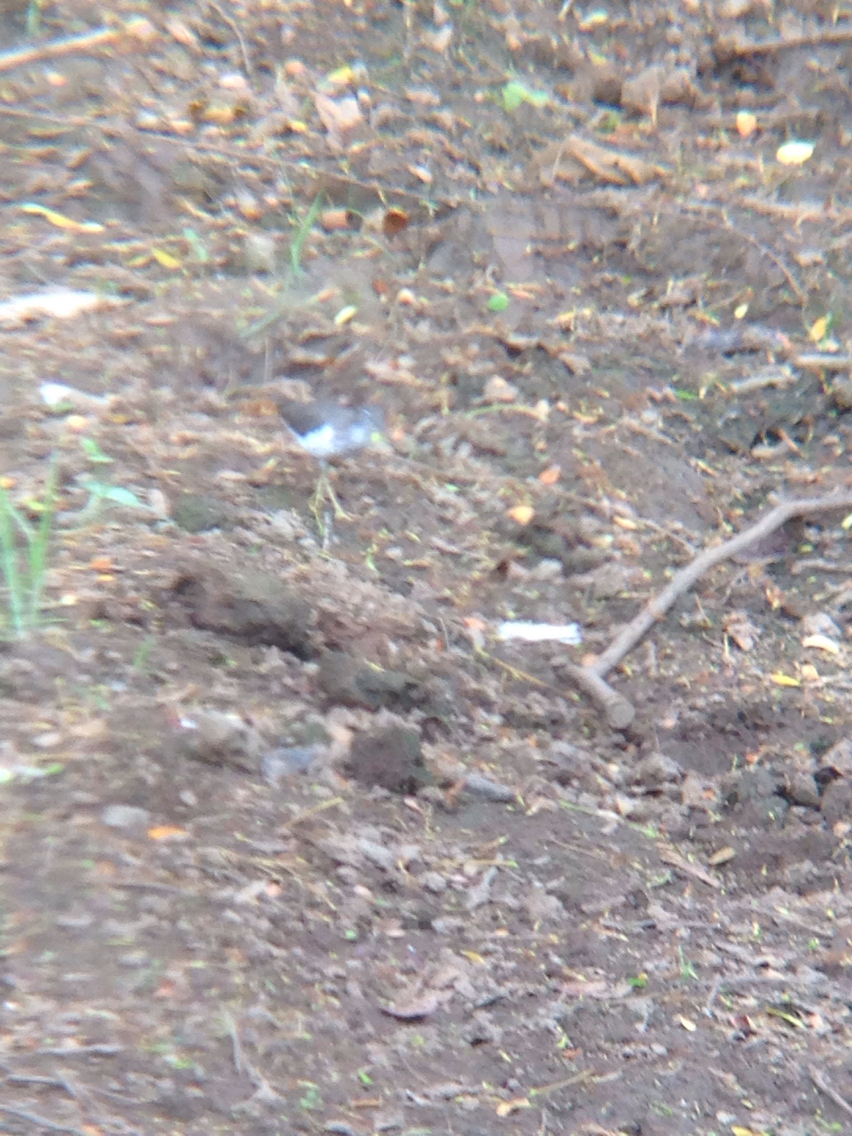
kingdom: Animalia
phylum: Chordata
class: Aves
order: Charadriiformes
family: Scolopacidae
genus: Actitis
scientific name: Actitis macularius
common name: Spotted sandpiper
